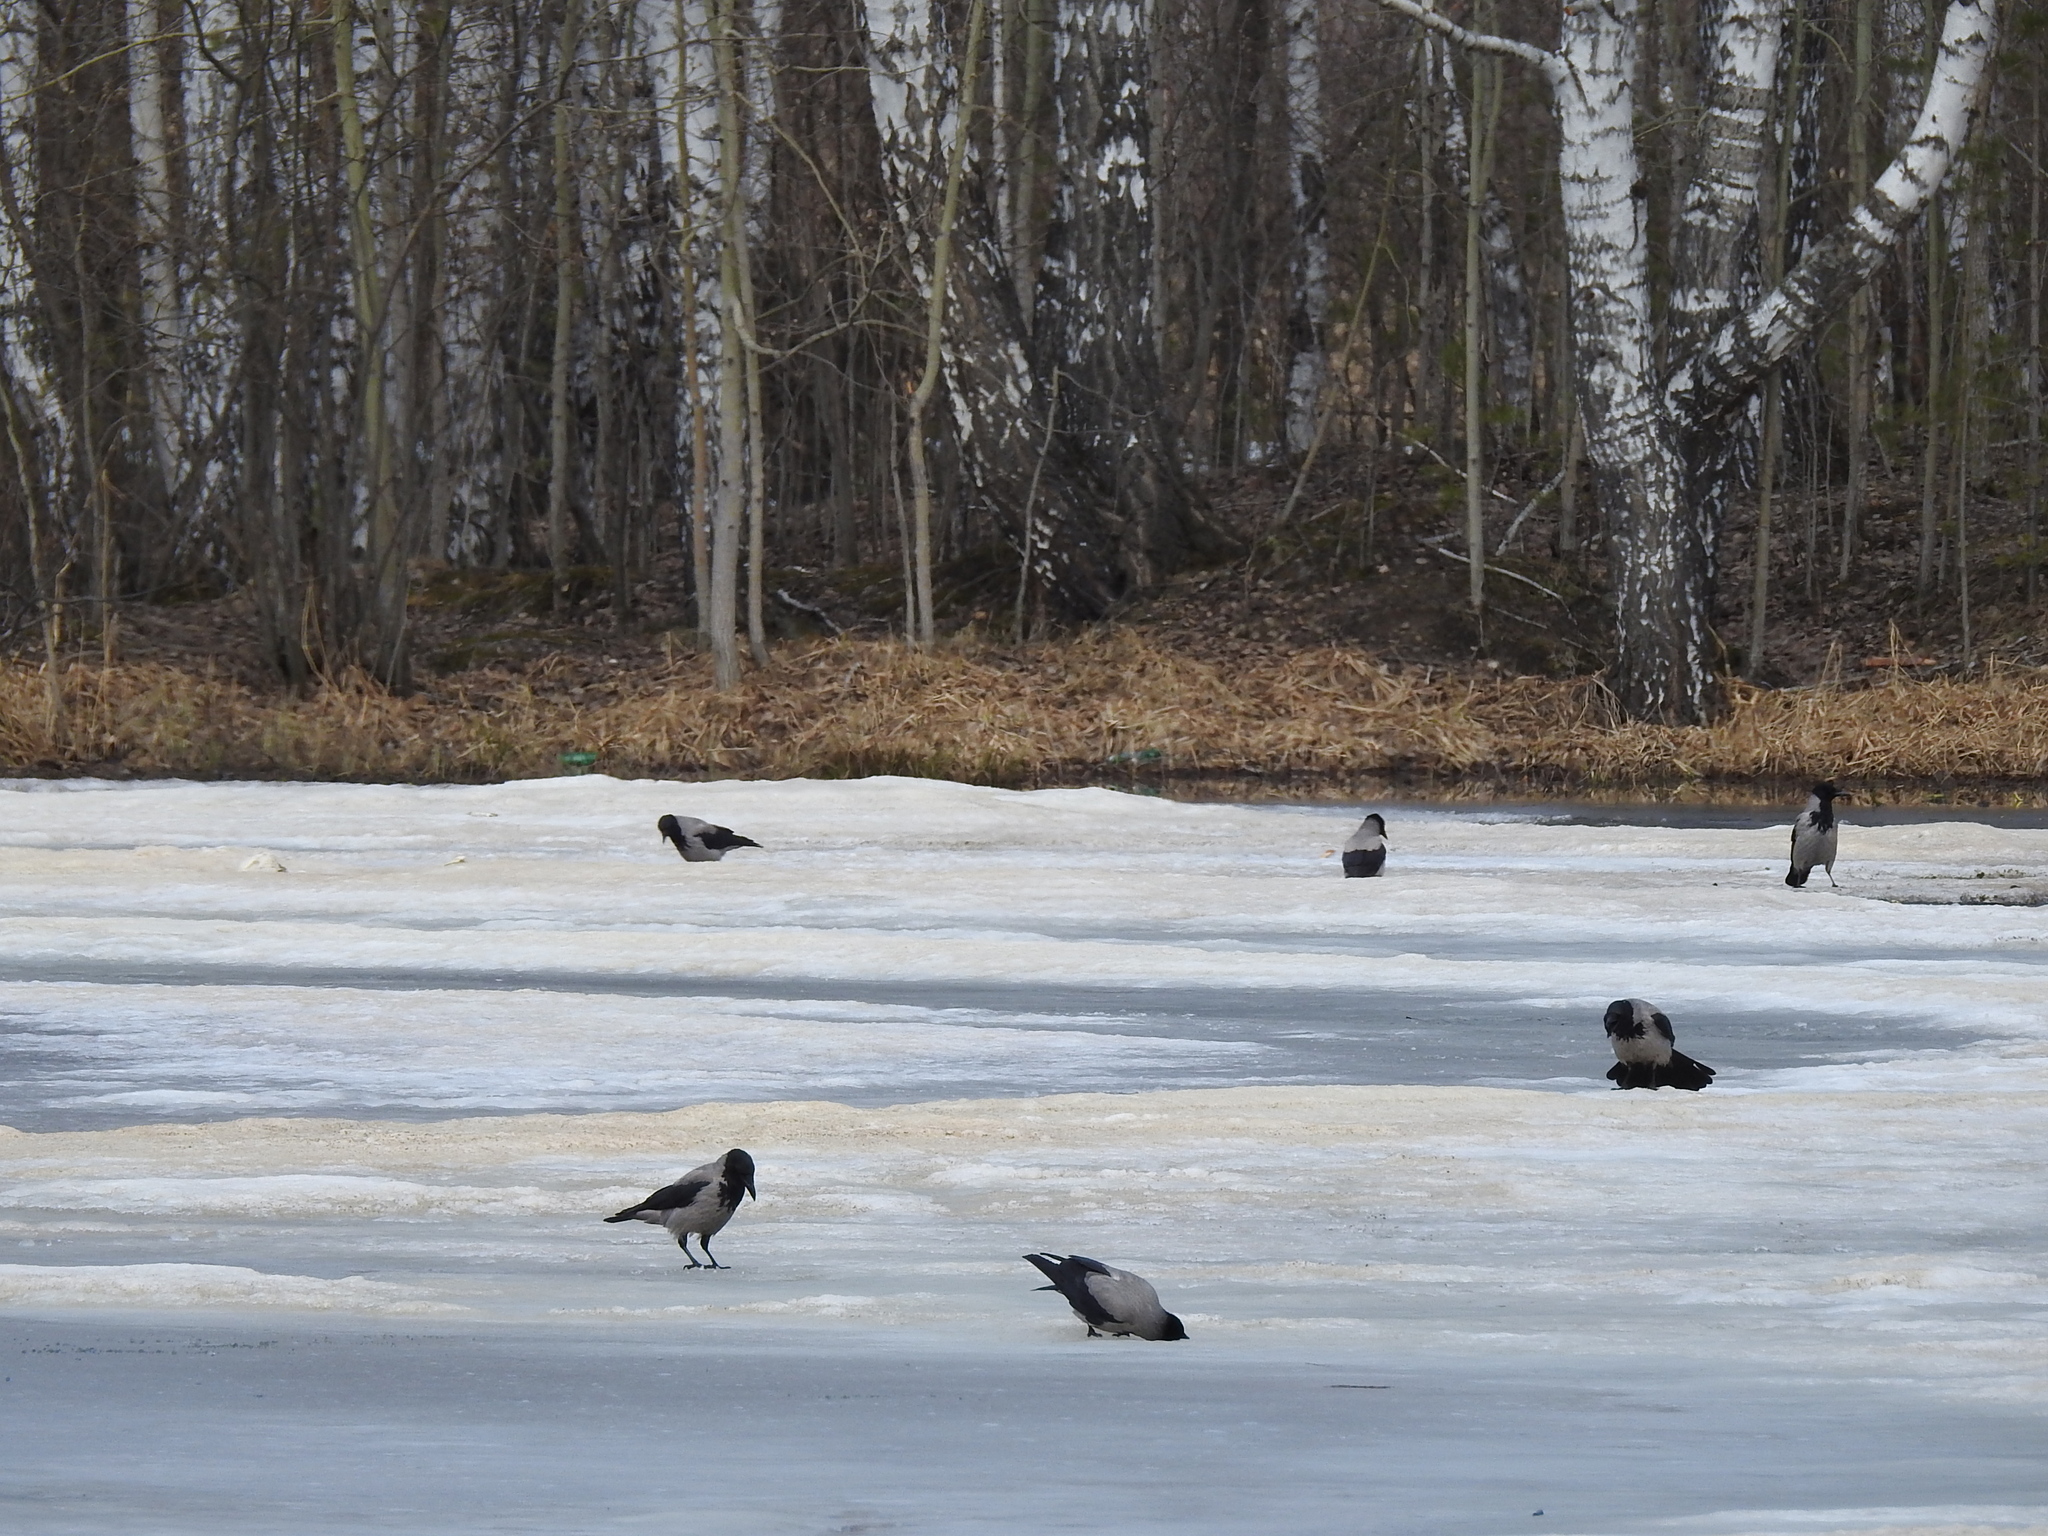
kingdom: Animalia
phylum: Chordata
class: Aves
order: Passeriformes
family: Corvidae
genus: Corvus
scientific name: Corvus cornix
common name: Hooded crow
